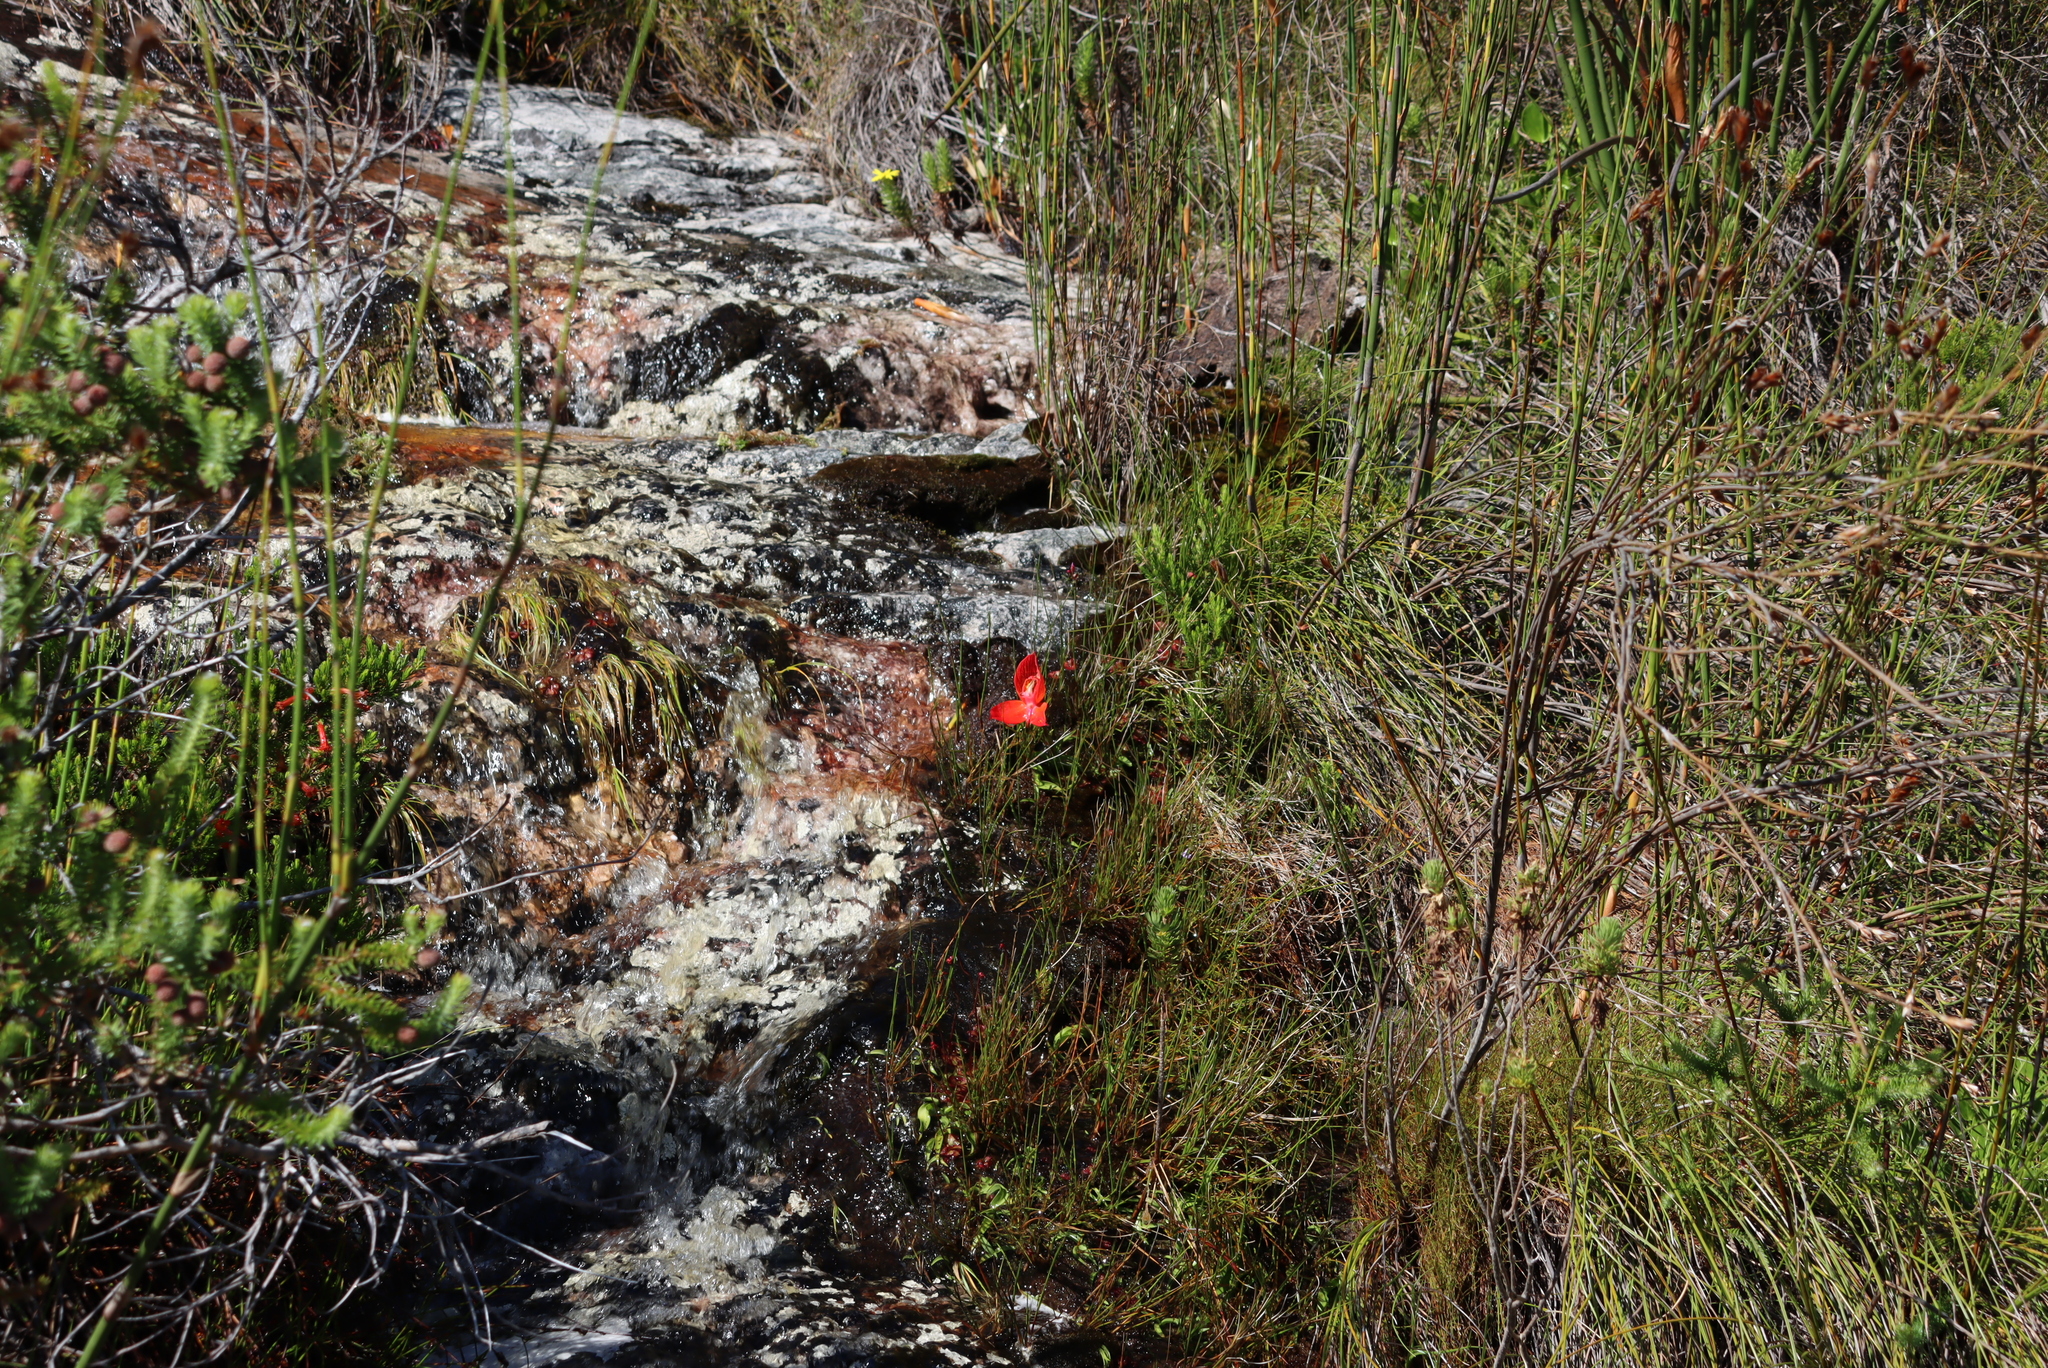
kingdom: Plantae
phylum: Tracheophyta
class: Liliopsida
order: Asparagales
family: Orchidaceae
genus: Disa
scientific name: Disa uniflora
